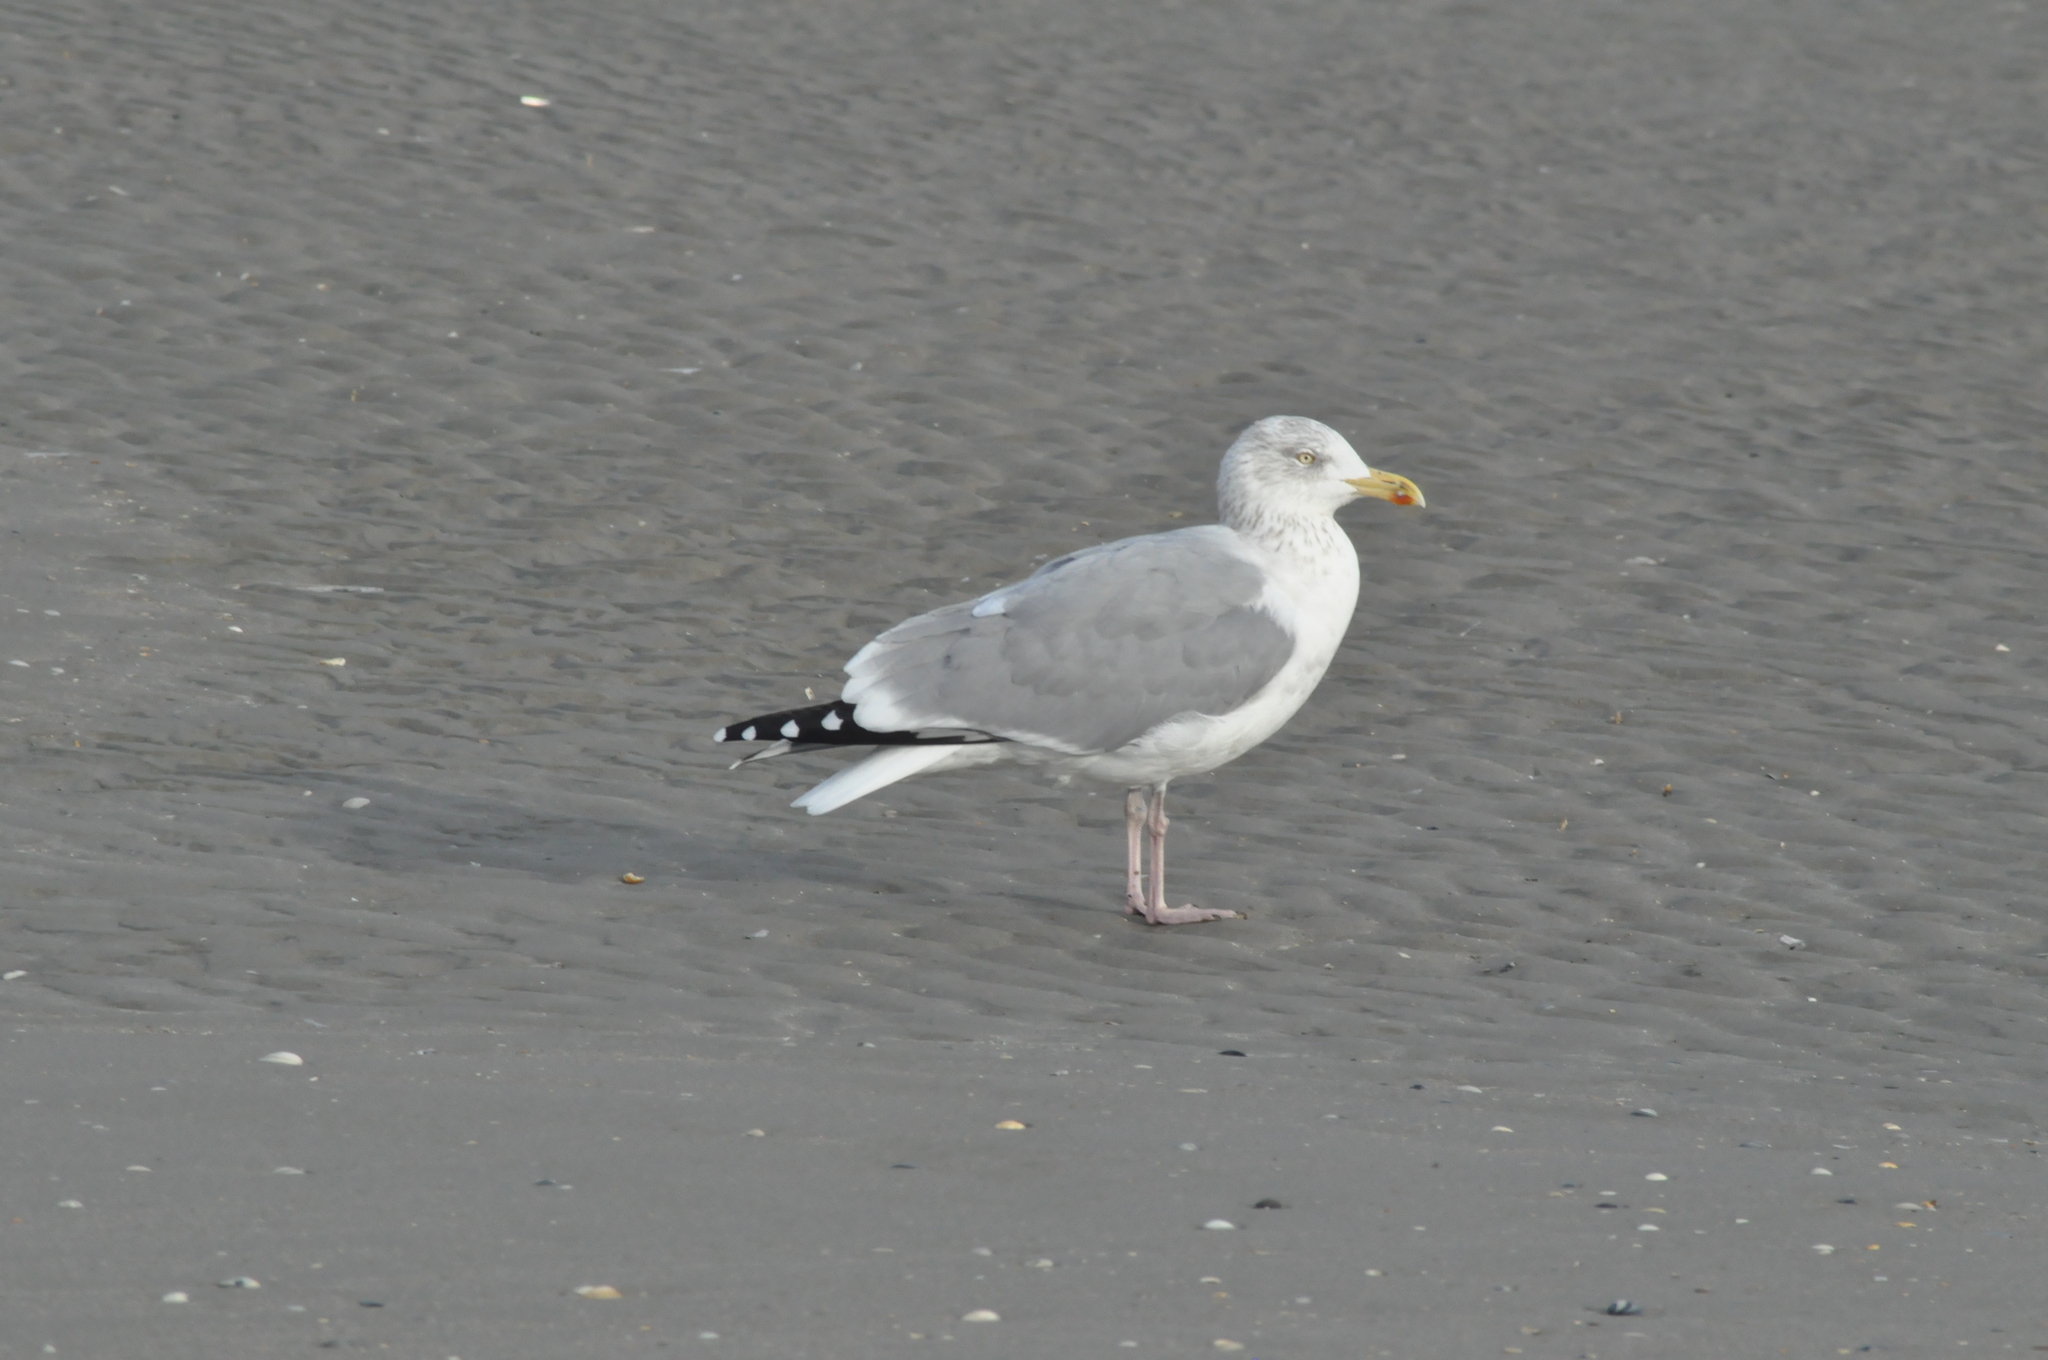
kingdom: Animalia
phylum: Chordata
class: Aves
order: Charadriiformes
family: Laridae
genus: Larus
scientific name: Larus argentatus
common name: Herring gull
